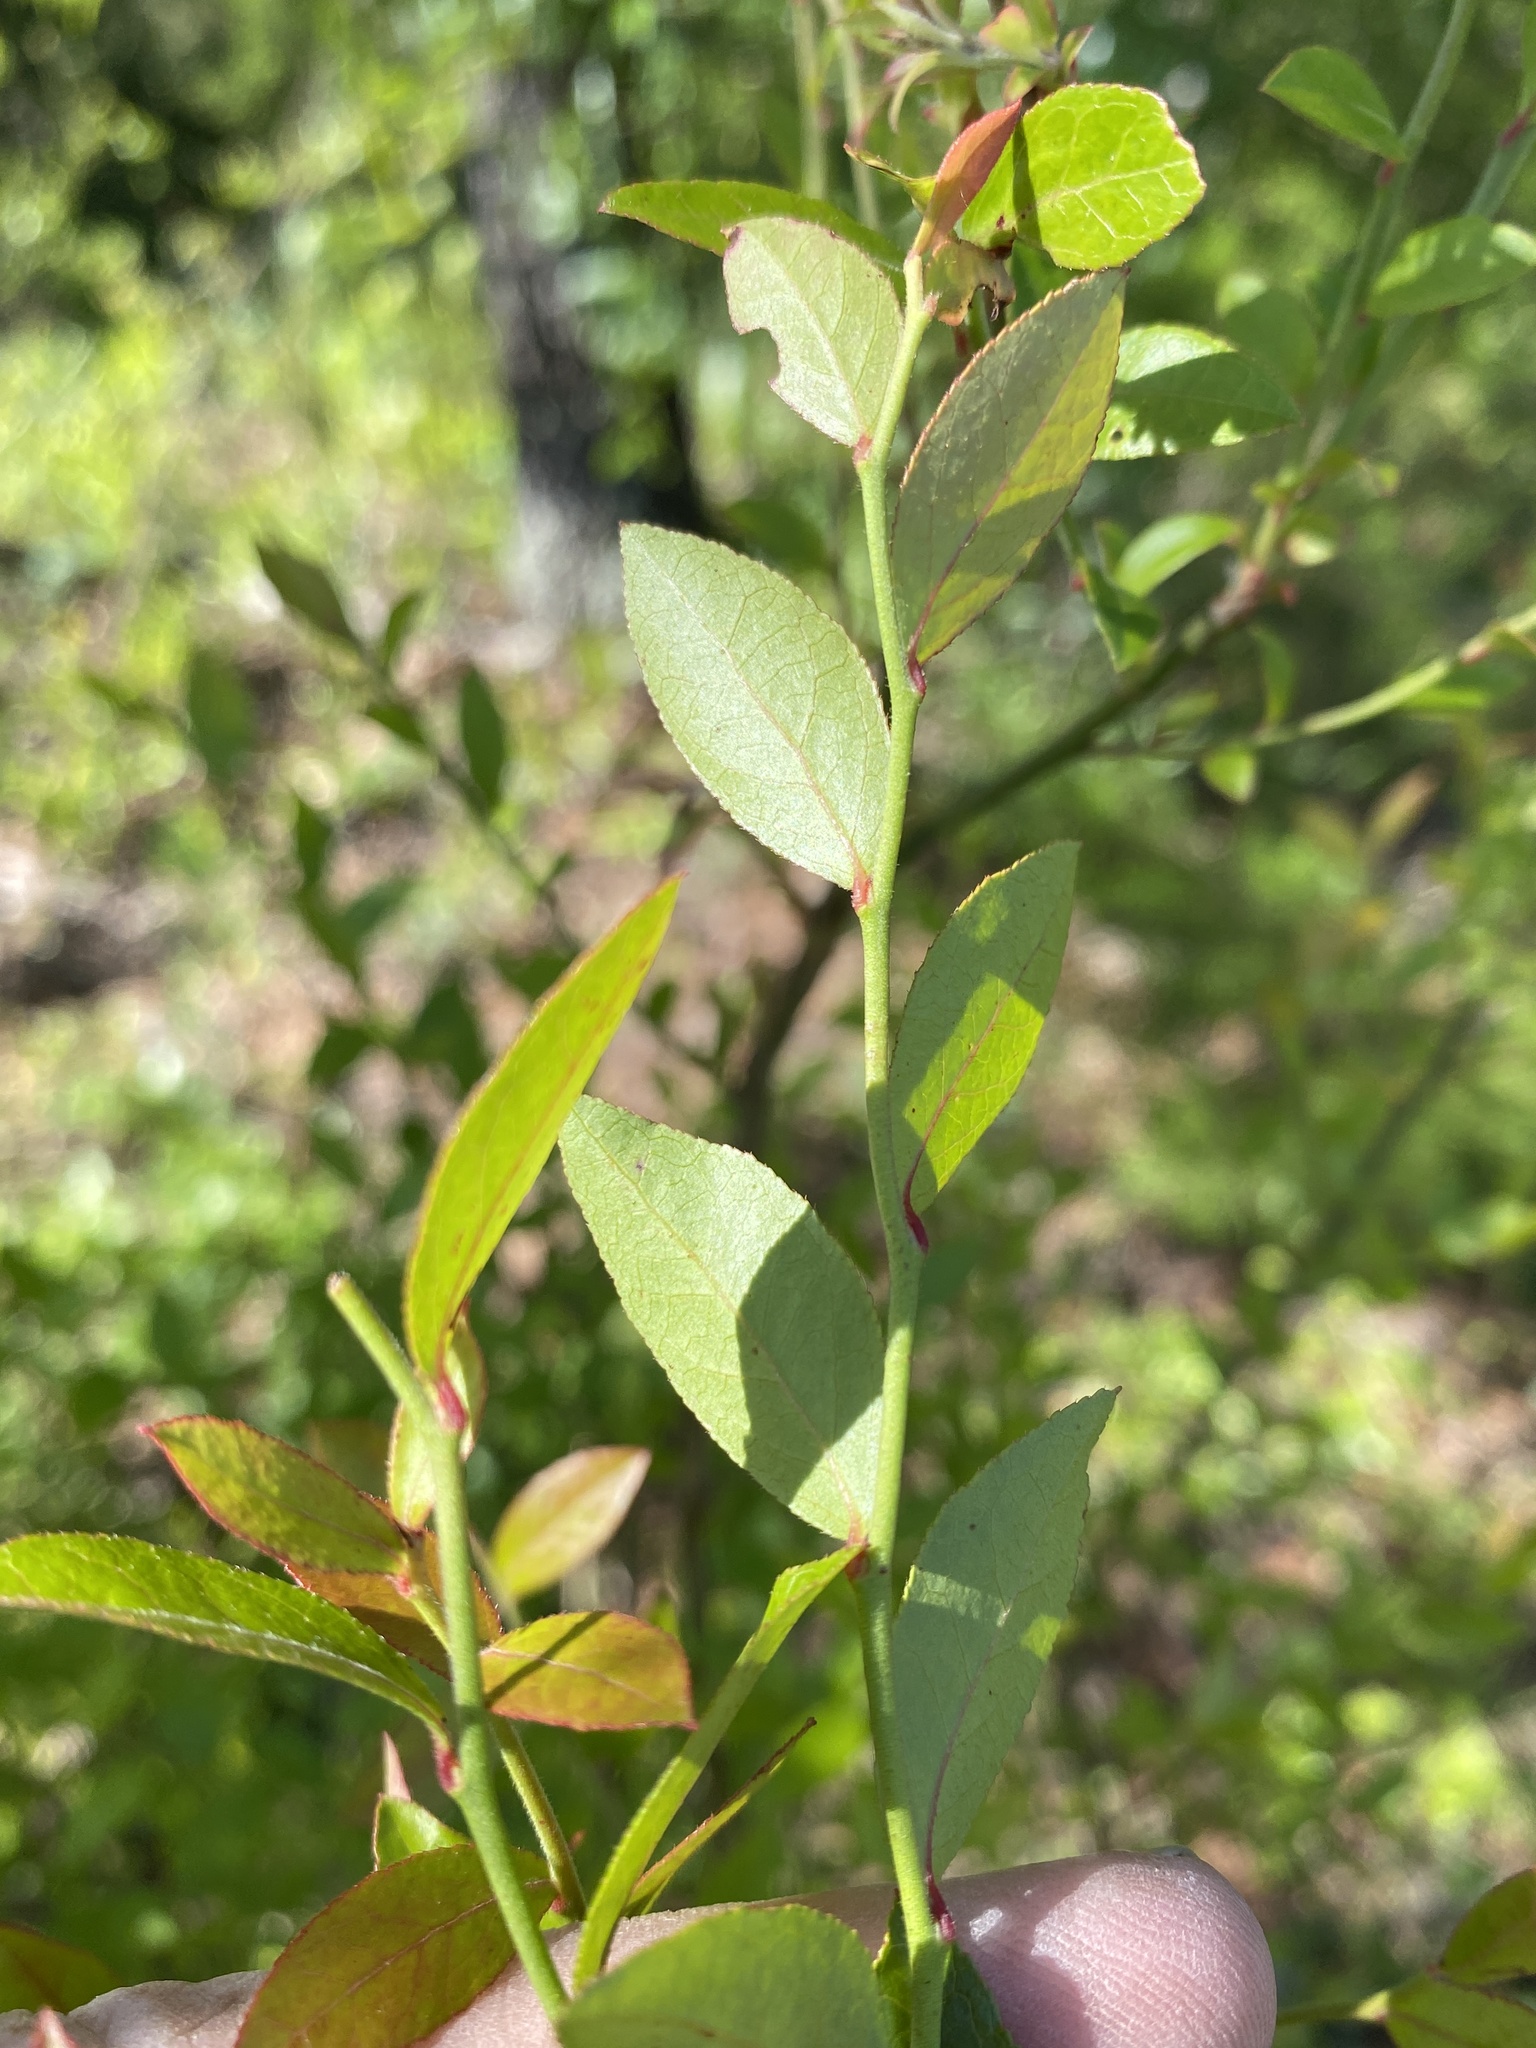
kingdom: Plantae
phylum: Tracheophyta
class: Magnoliopsida
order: Ericales
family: Ericaceae
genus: Vaccinium
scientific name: Vaccinium corymbosum
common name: Blueberry
